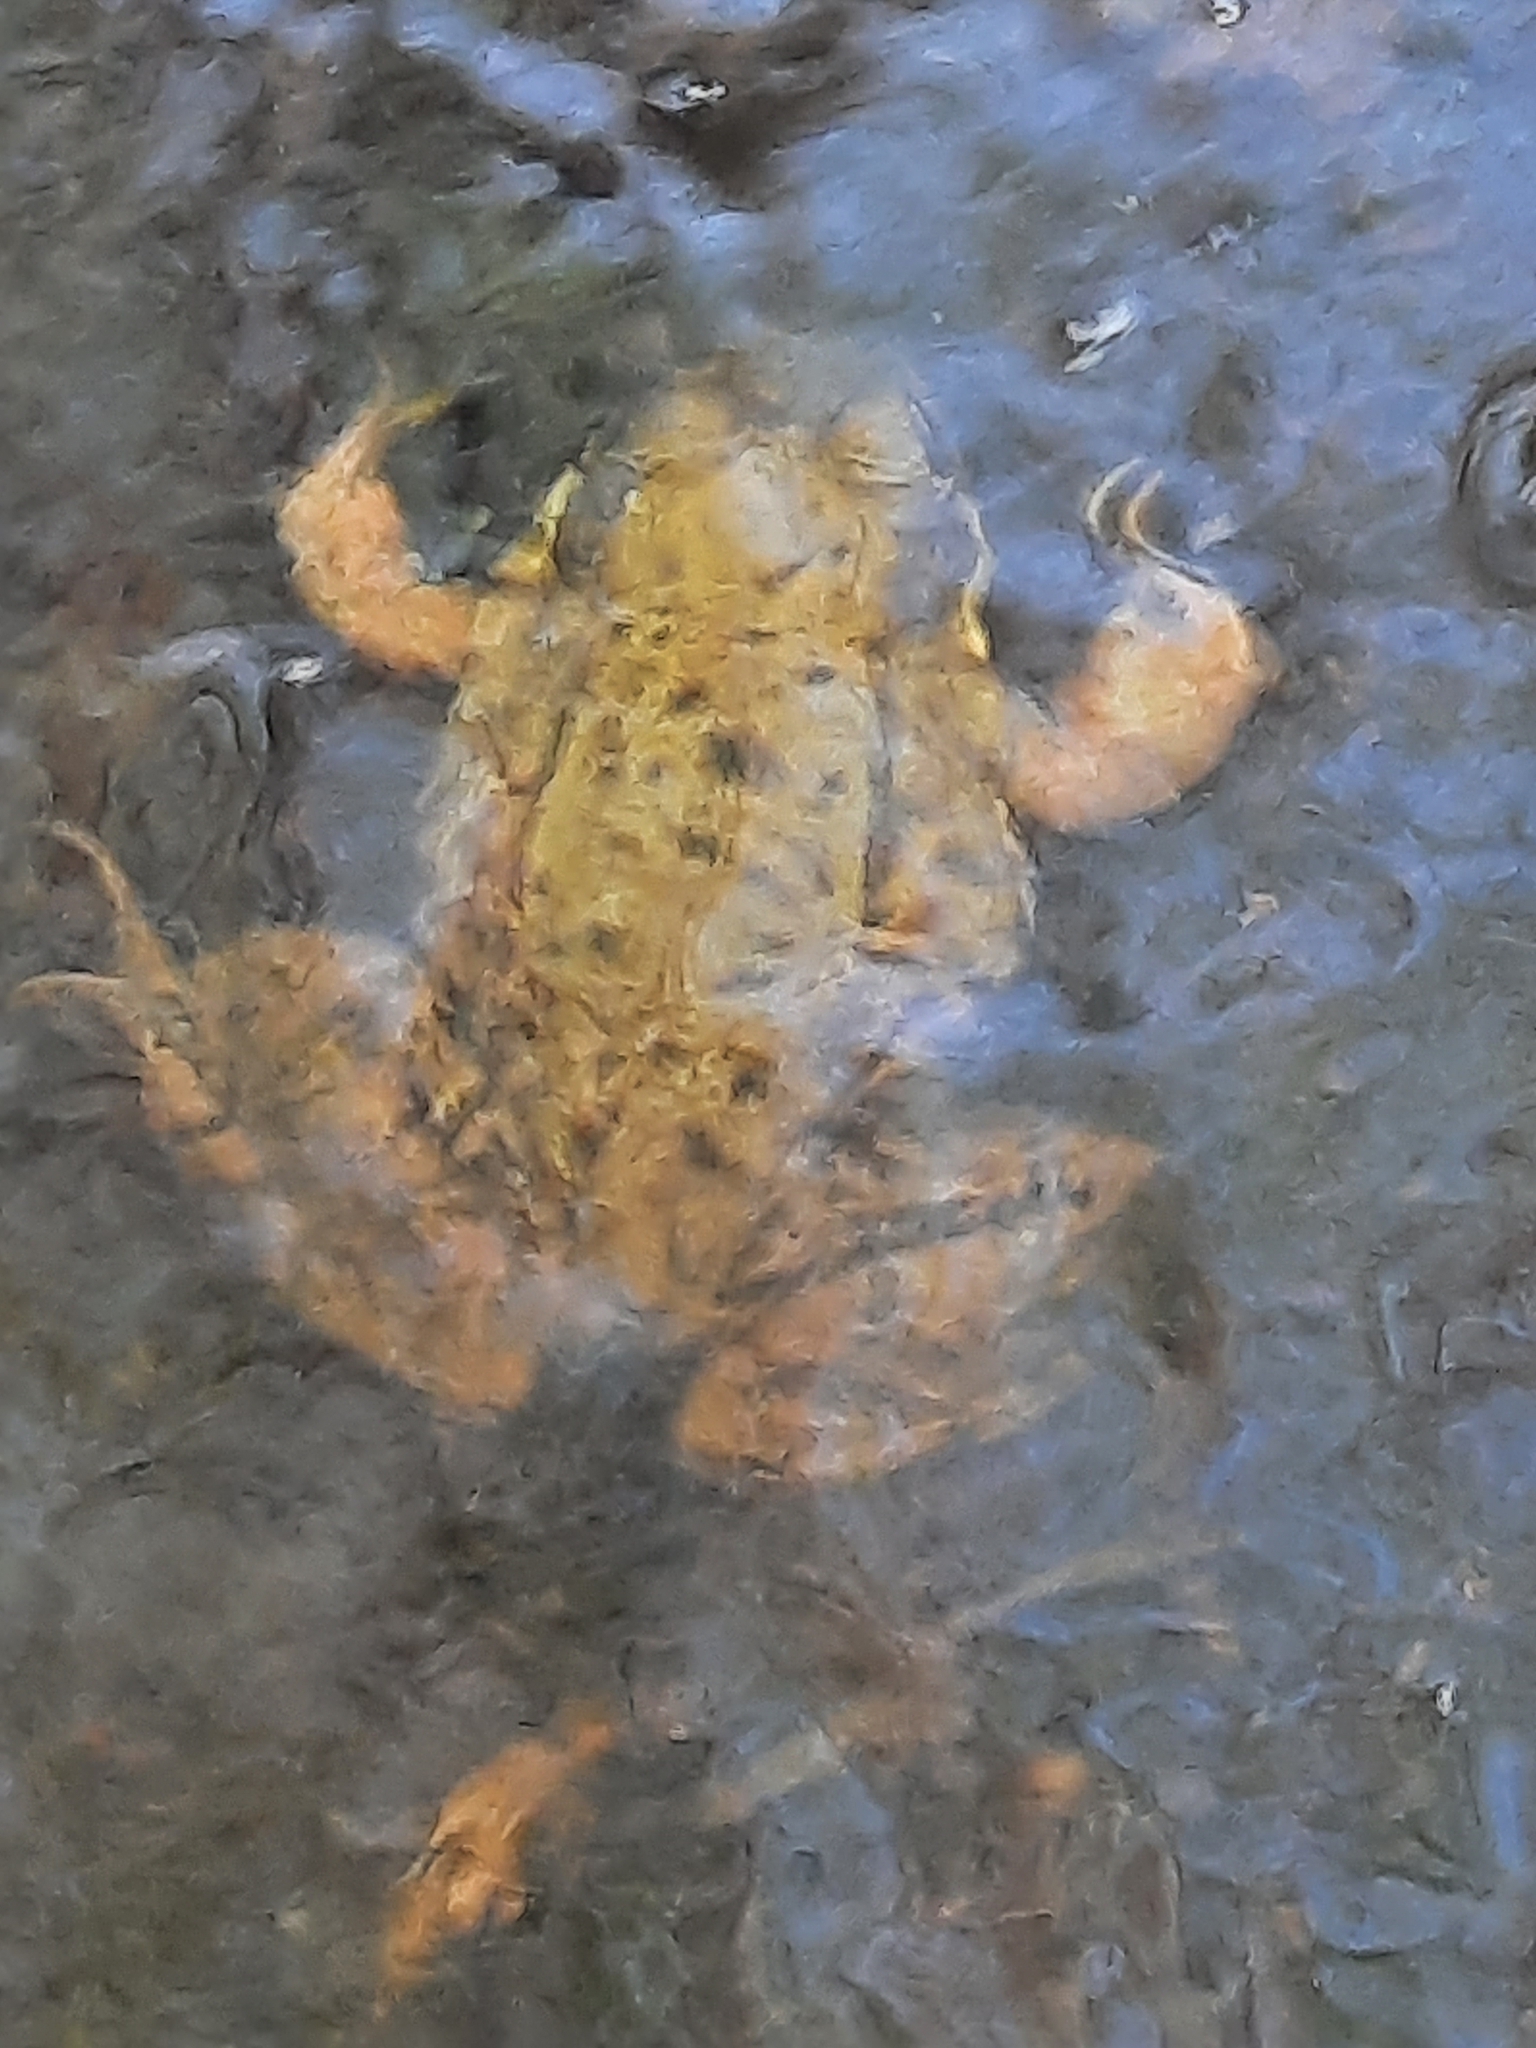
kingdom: Animalia
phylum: Chordata
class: Amphibia
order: Anura
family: Ranidae
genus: Lithobates
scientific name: Lithobates clamitans
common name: Green frog
